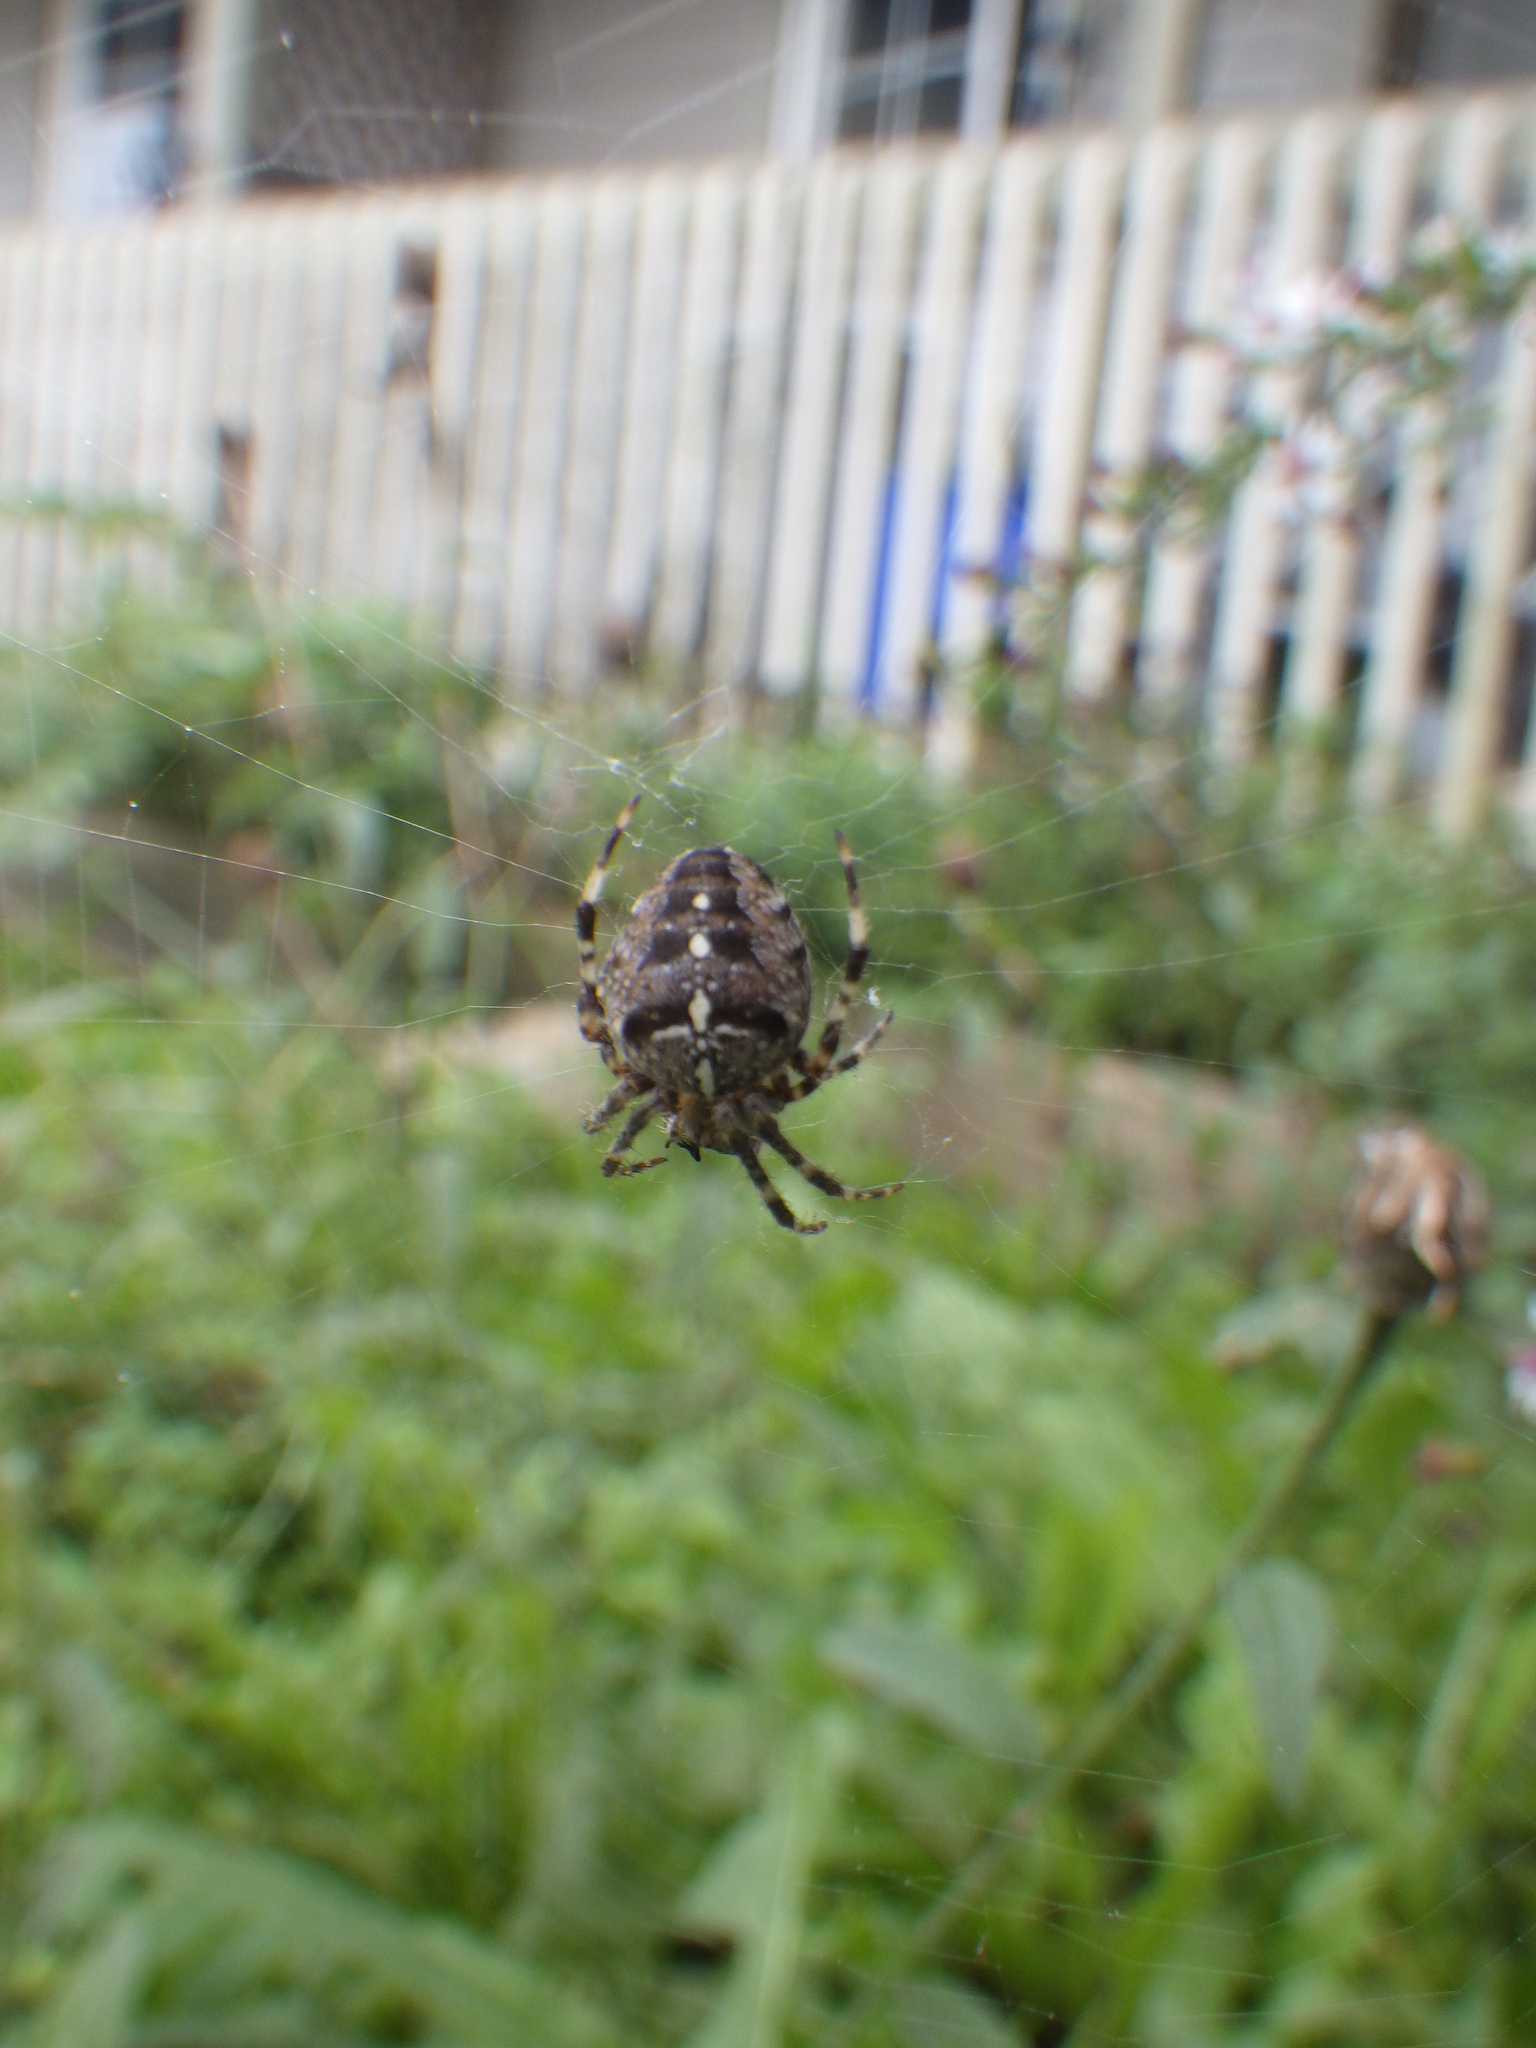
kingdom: Animalia
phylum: Arthropoda
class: Arachnida
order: Araneae
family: Araneidae
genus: Araneus
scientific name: Araneus diadematus
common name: Cross orbweaver
